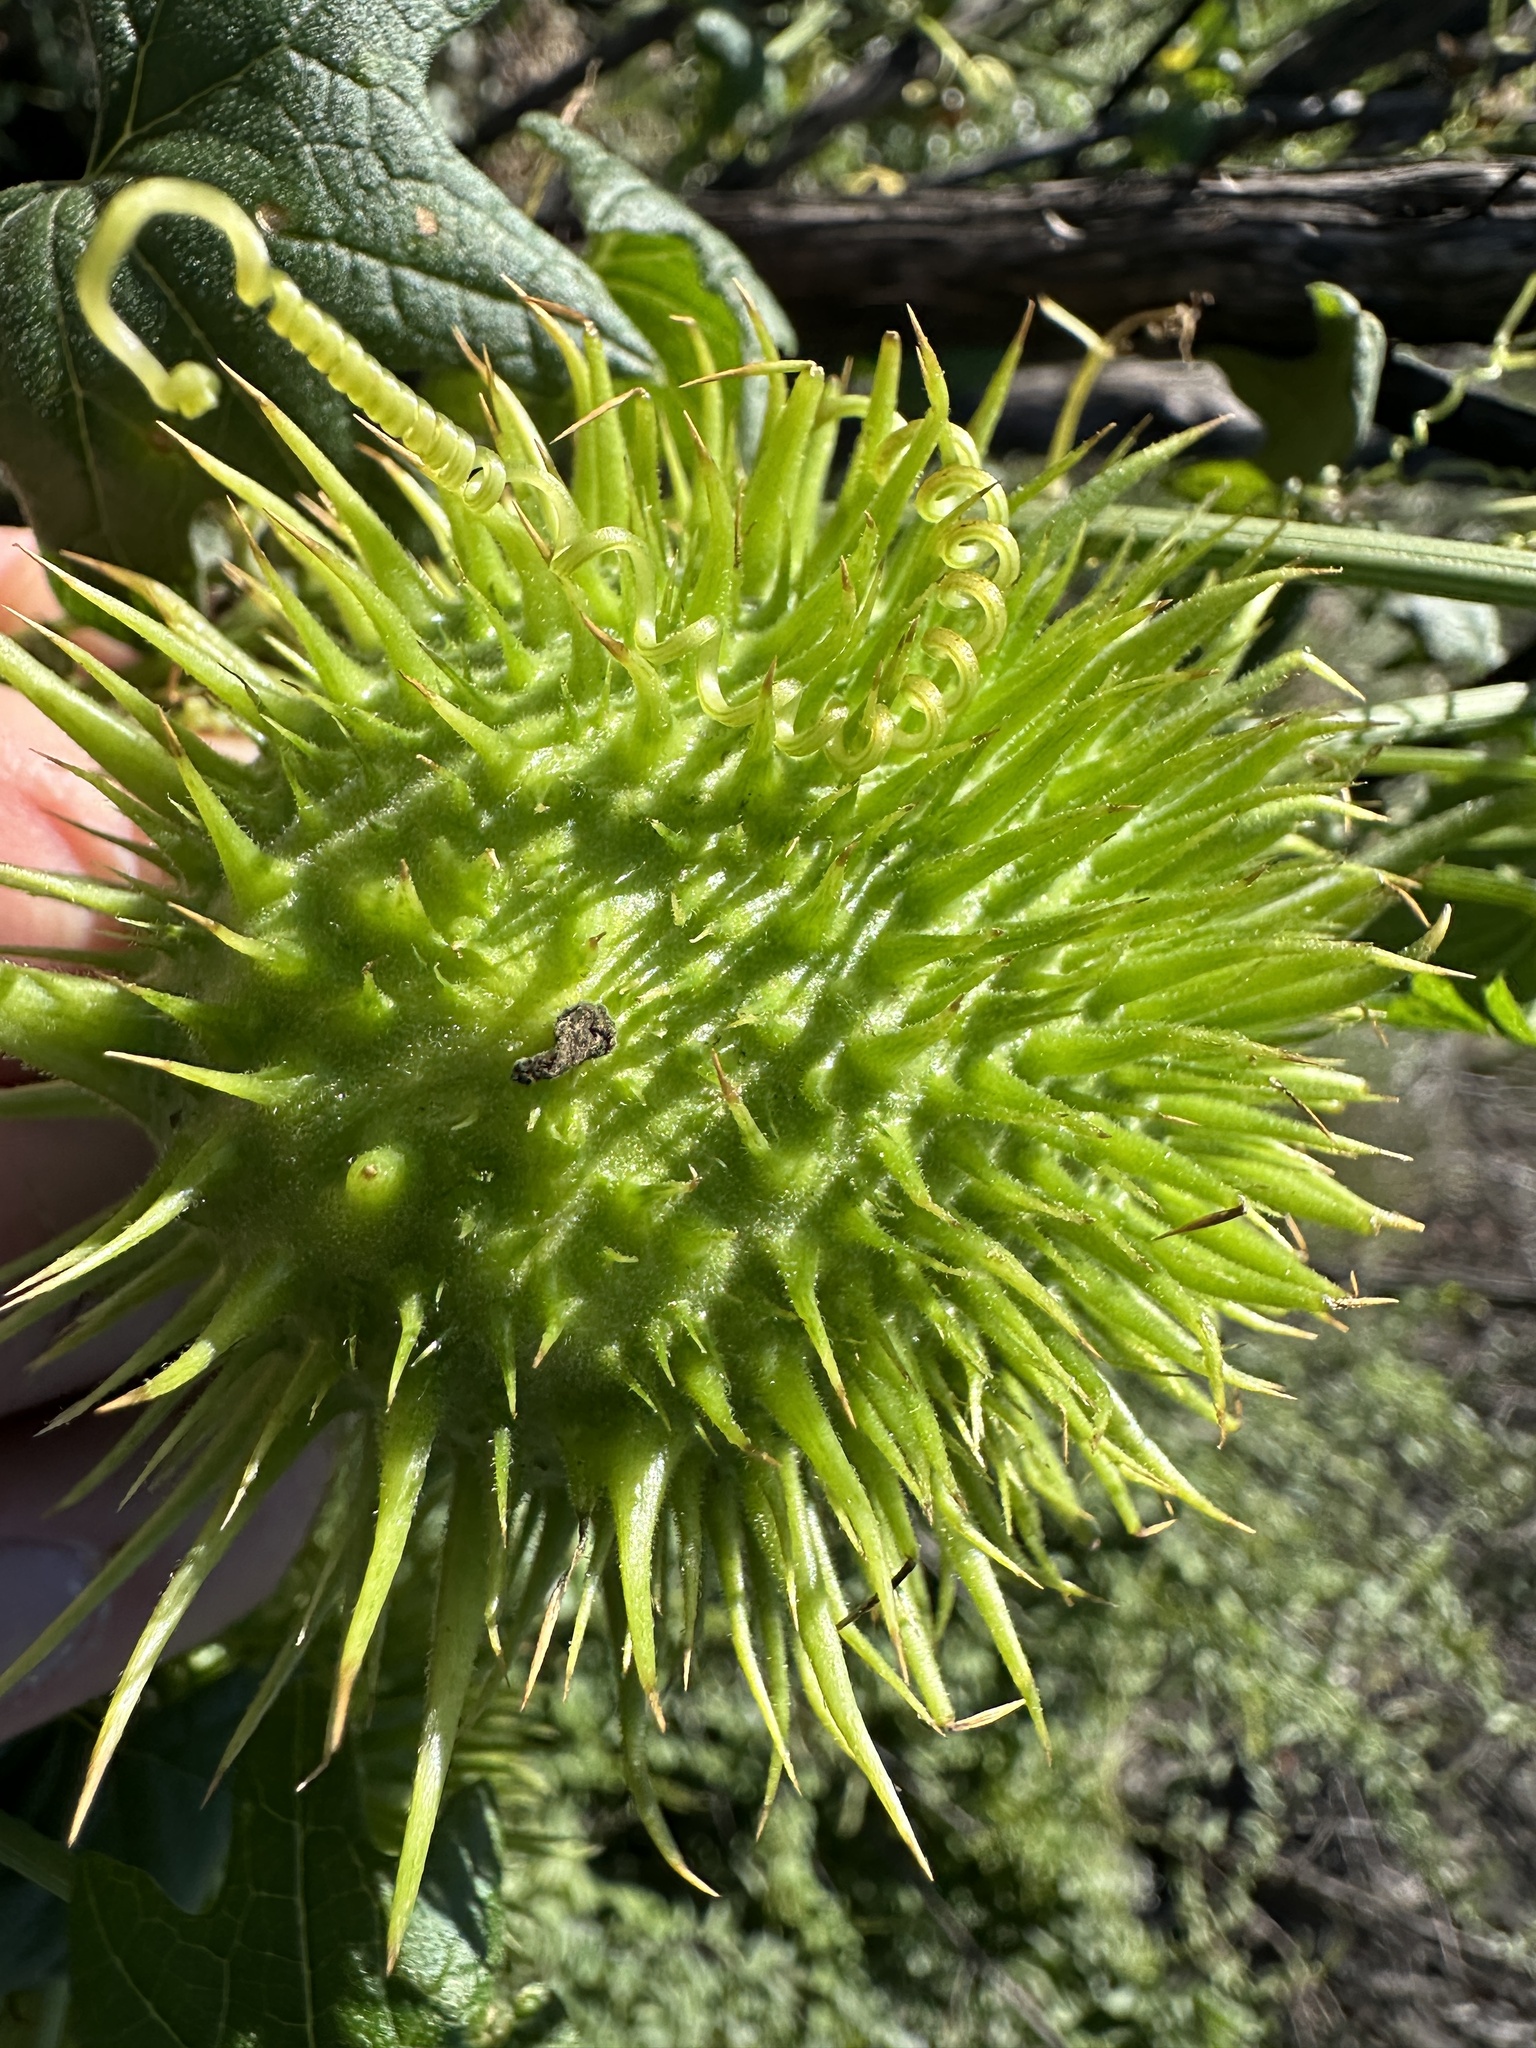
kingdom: Plantae
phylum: Tracheophyta
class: Magnoliopsida
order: Cucurbitales
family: Cucurbitaceae
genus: Marah
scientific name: Marah fabacea
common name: California manroot
